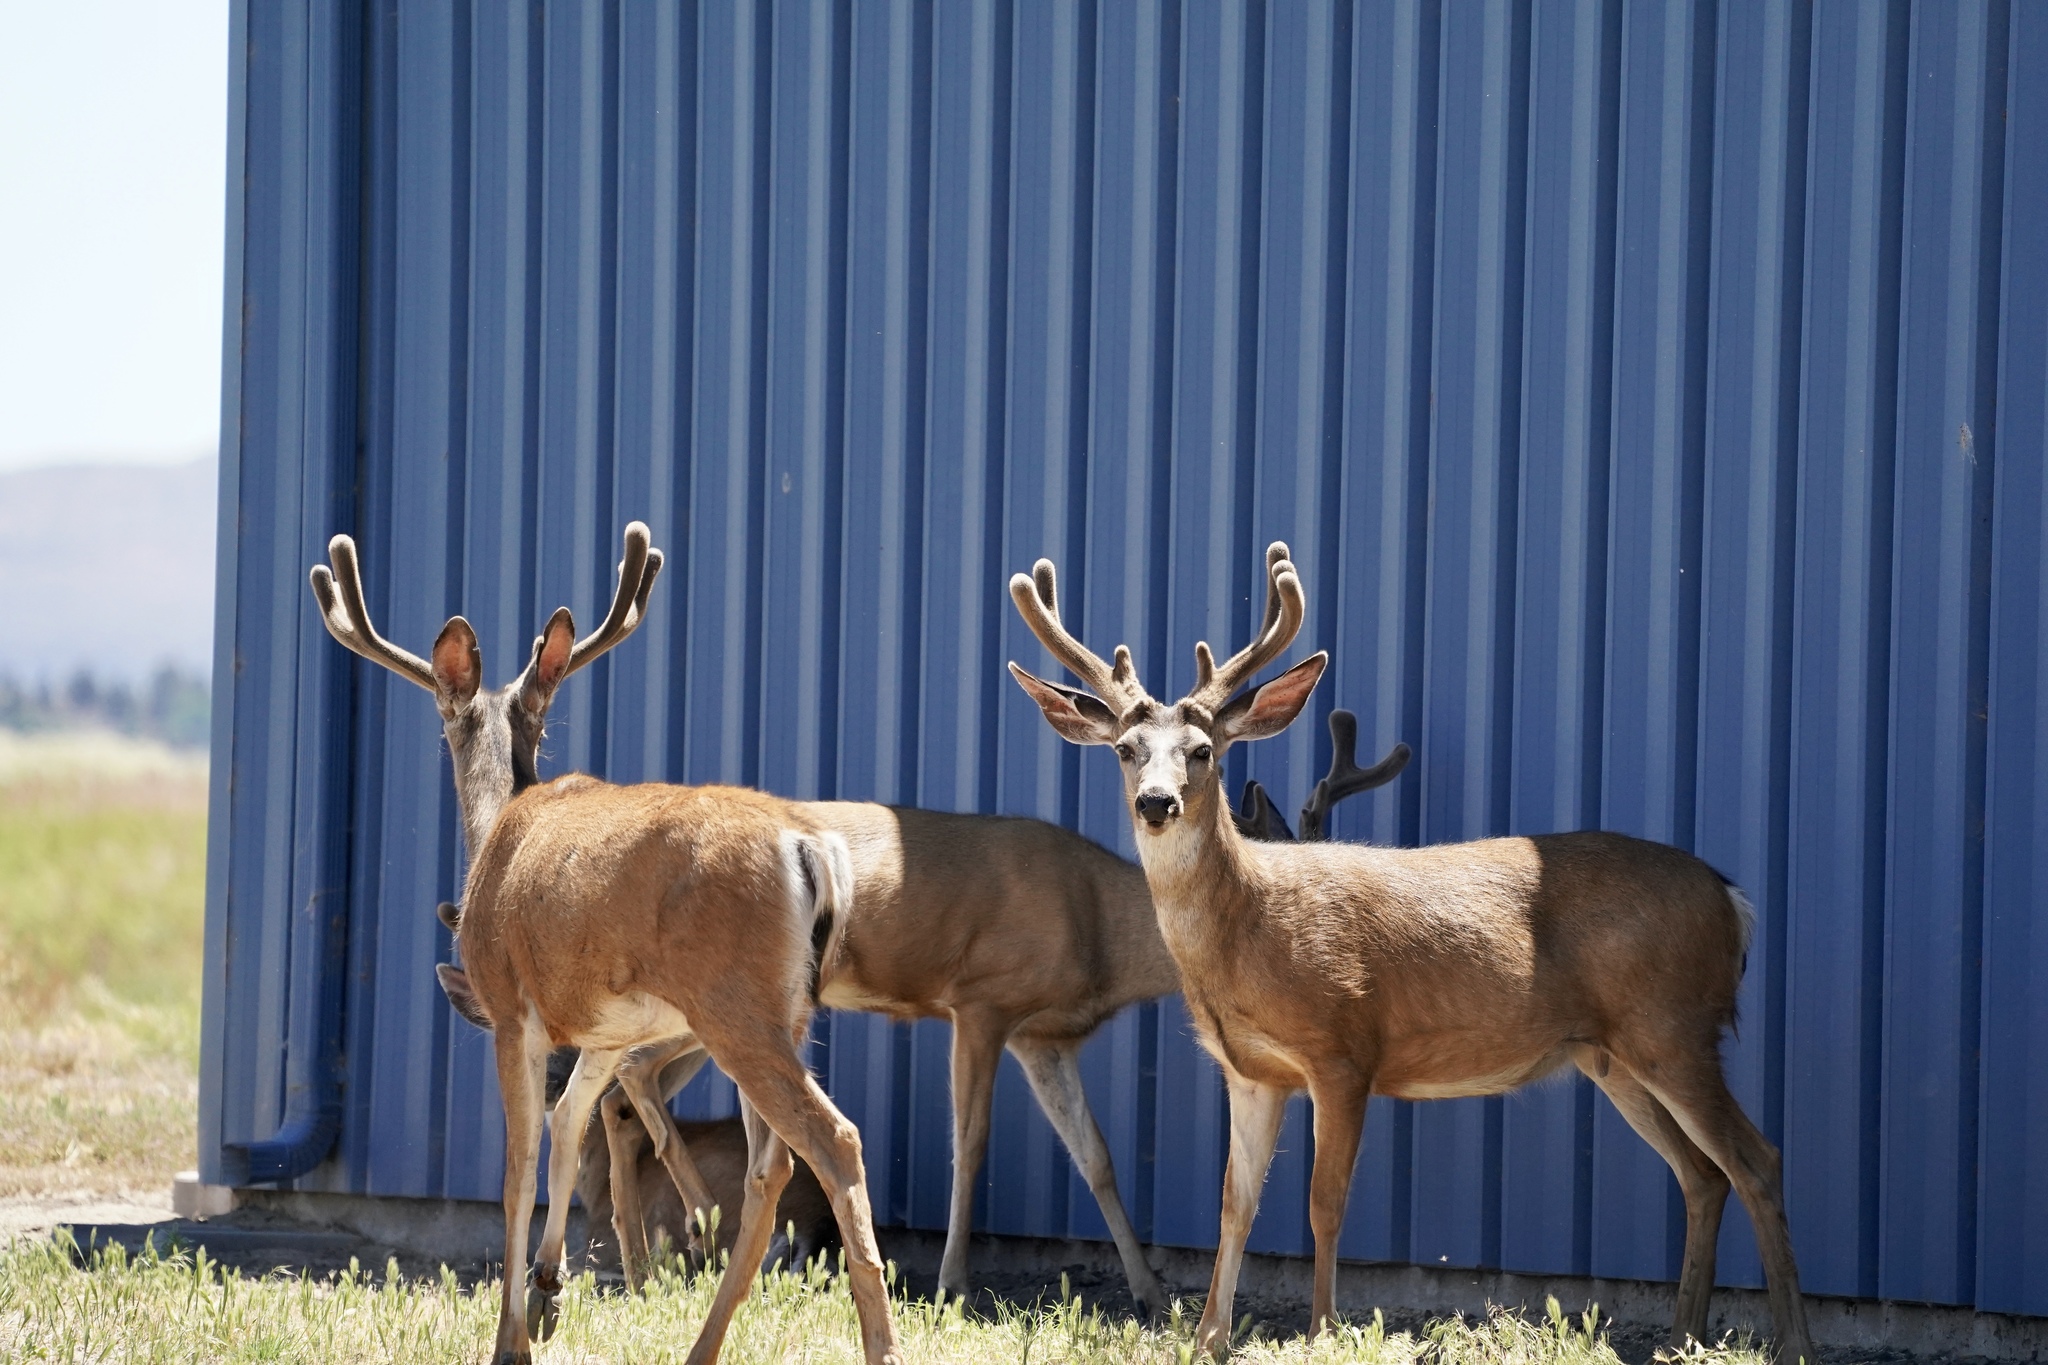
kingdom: Animalia
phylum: Chordata
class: Mammalia
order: Artiodactyla
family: Cervidae
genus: Odocoileus
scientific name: Odocoileus hemionus
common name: Mule deer
